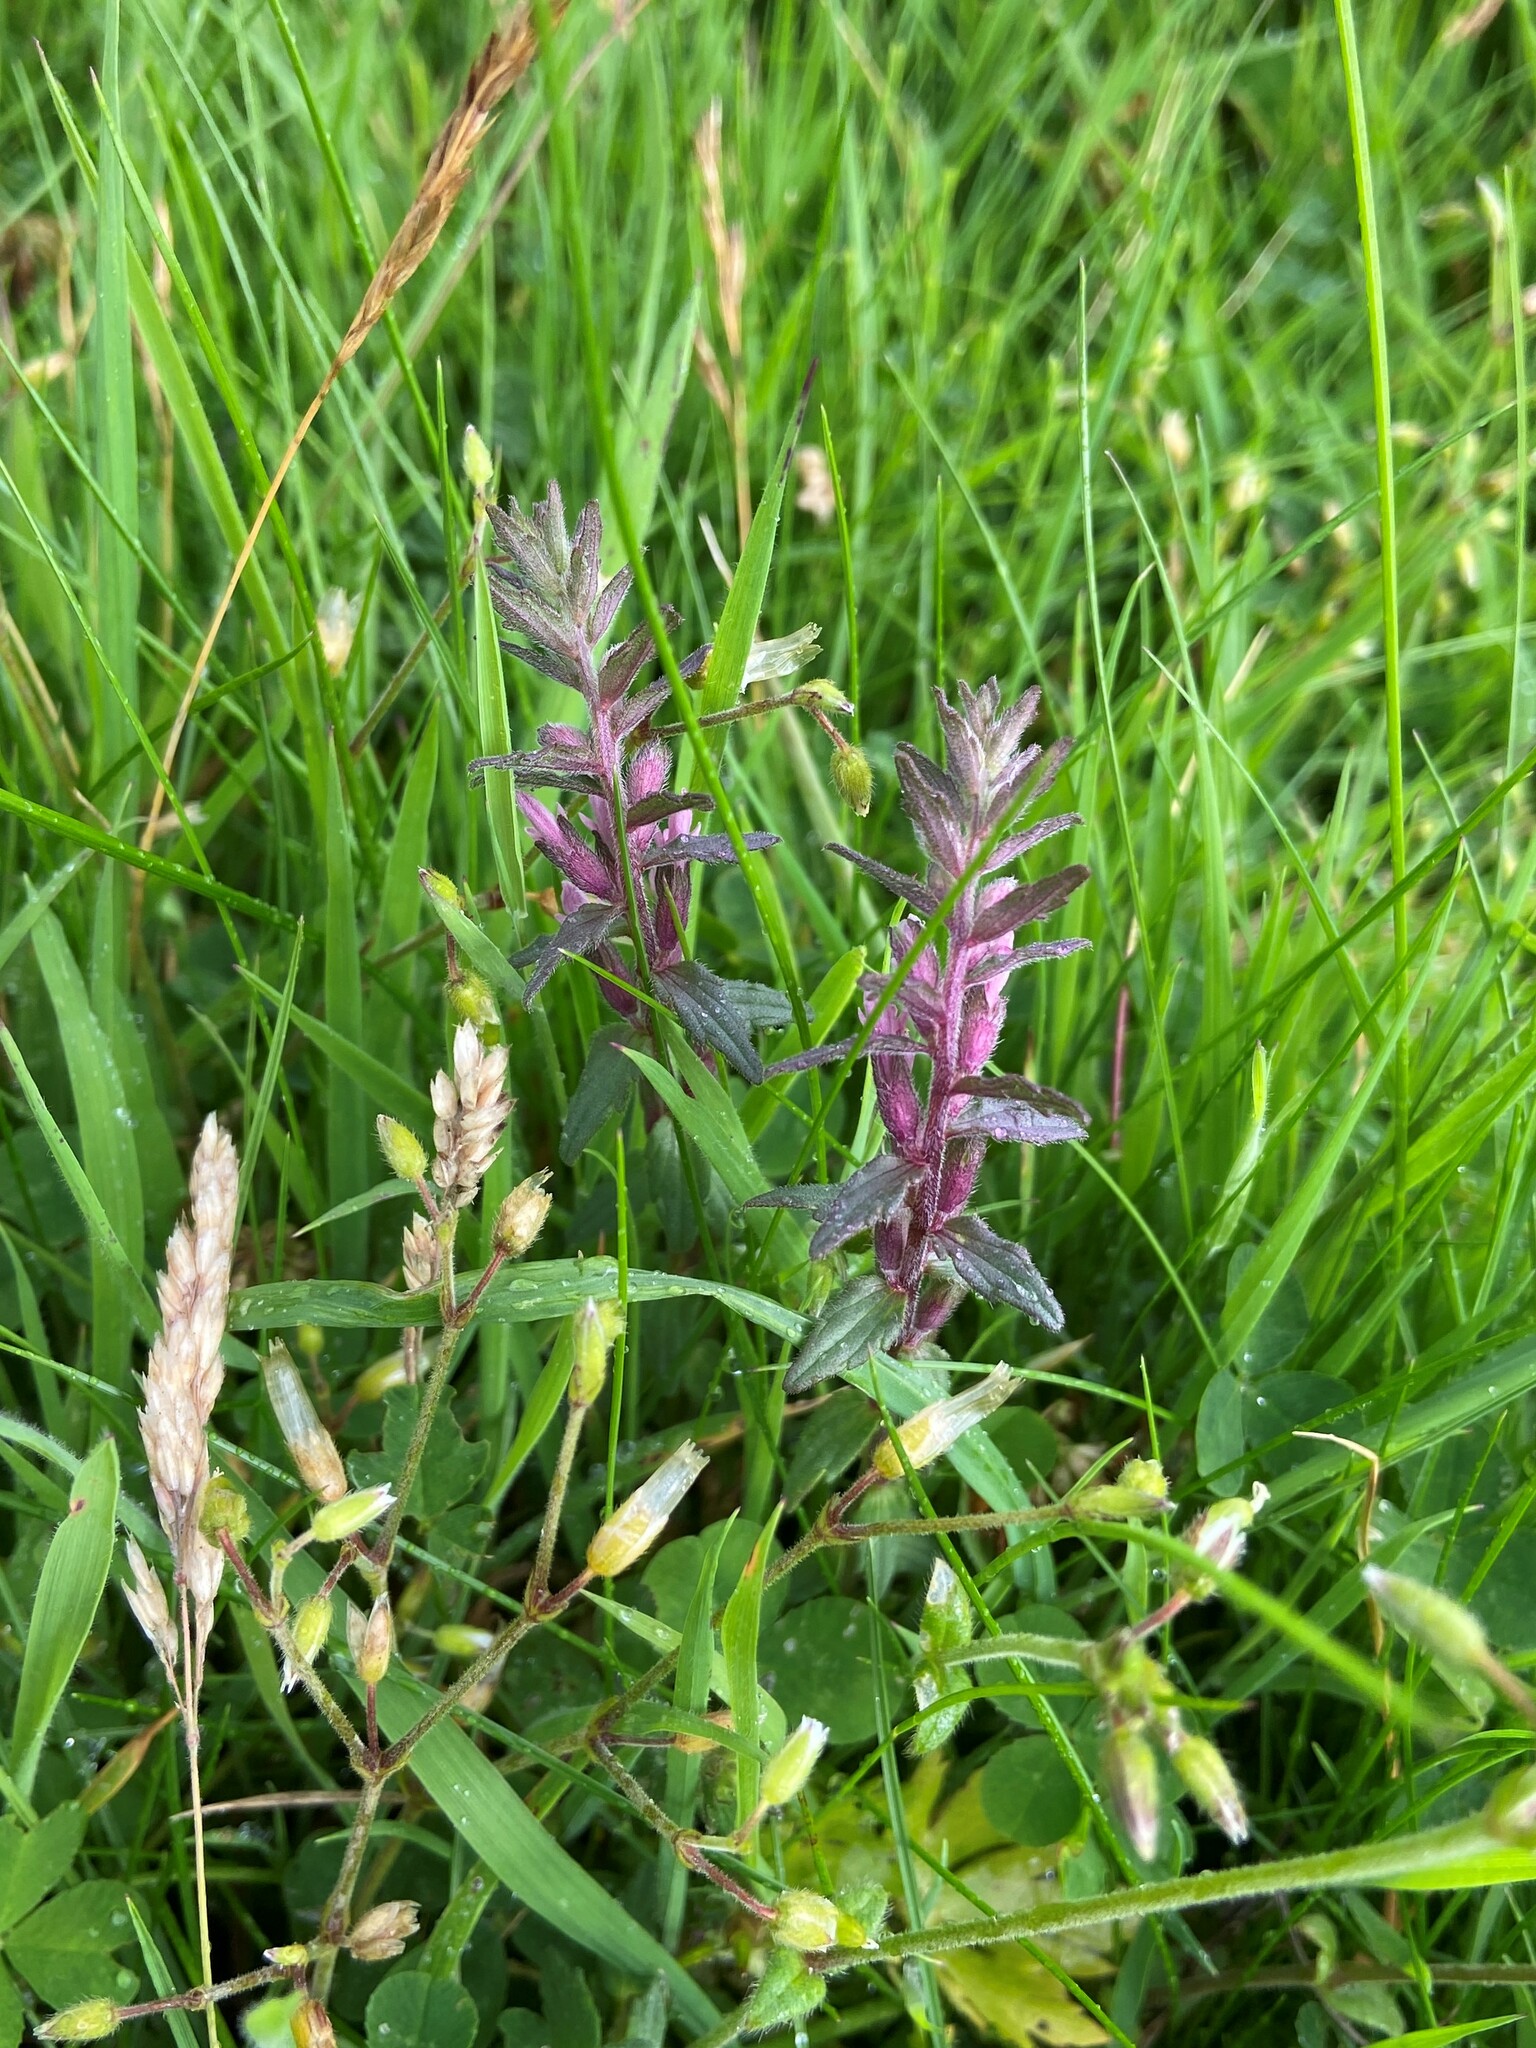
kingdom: Plantae
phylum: Tracheophyta
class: Magnoliopsida
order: Lamiales
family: Orobanchaceae
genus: Odontites
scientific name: Odontites vernus
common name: Red bartsia
